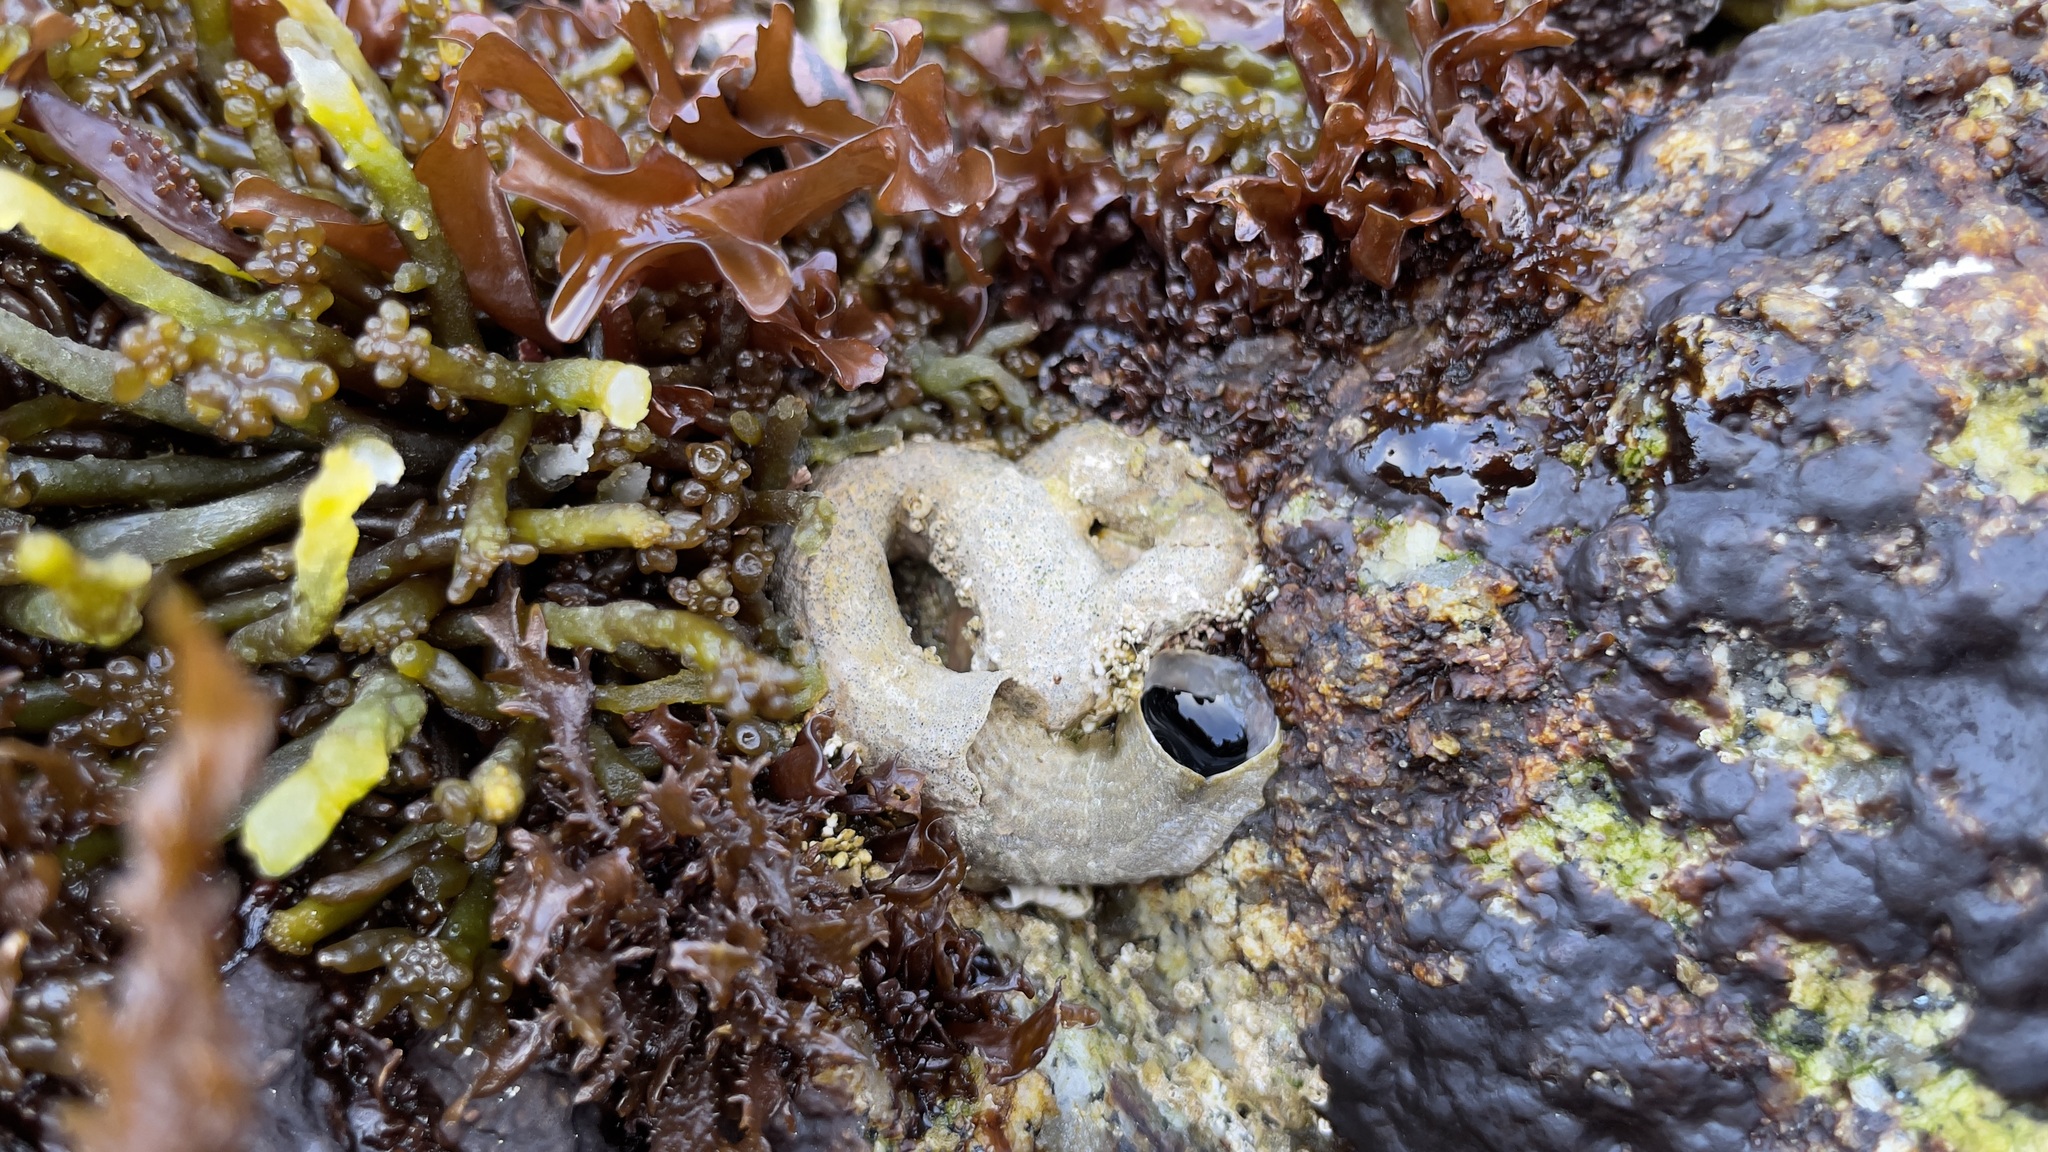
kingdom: Animalia
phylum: Mollusca
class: Gastropoda
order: Littorinimorpha
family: Vermetidae
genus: Thylacodes
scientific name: Thylacodes squamigerus
